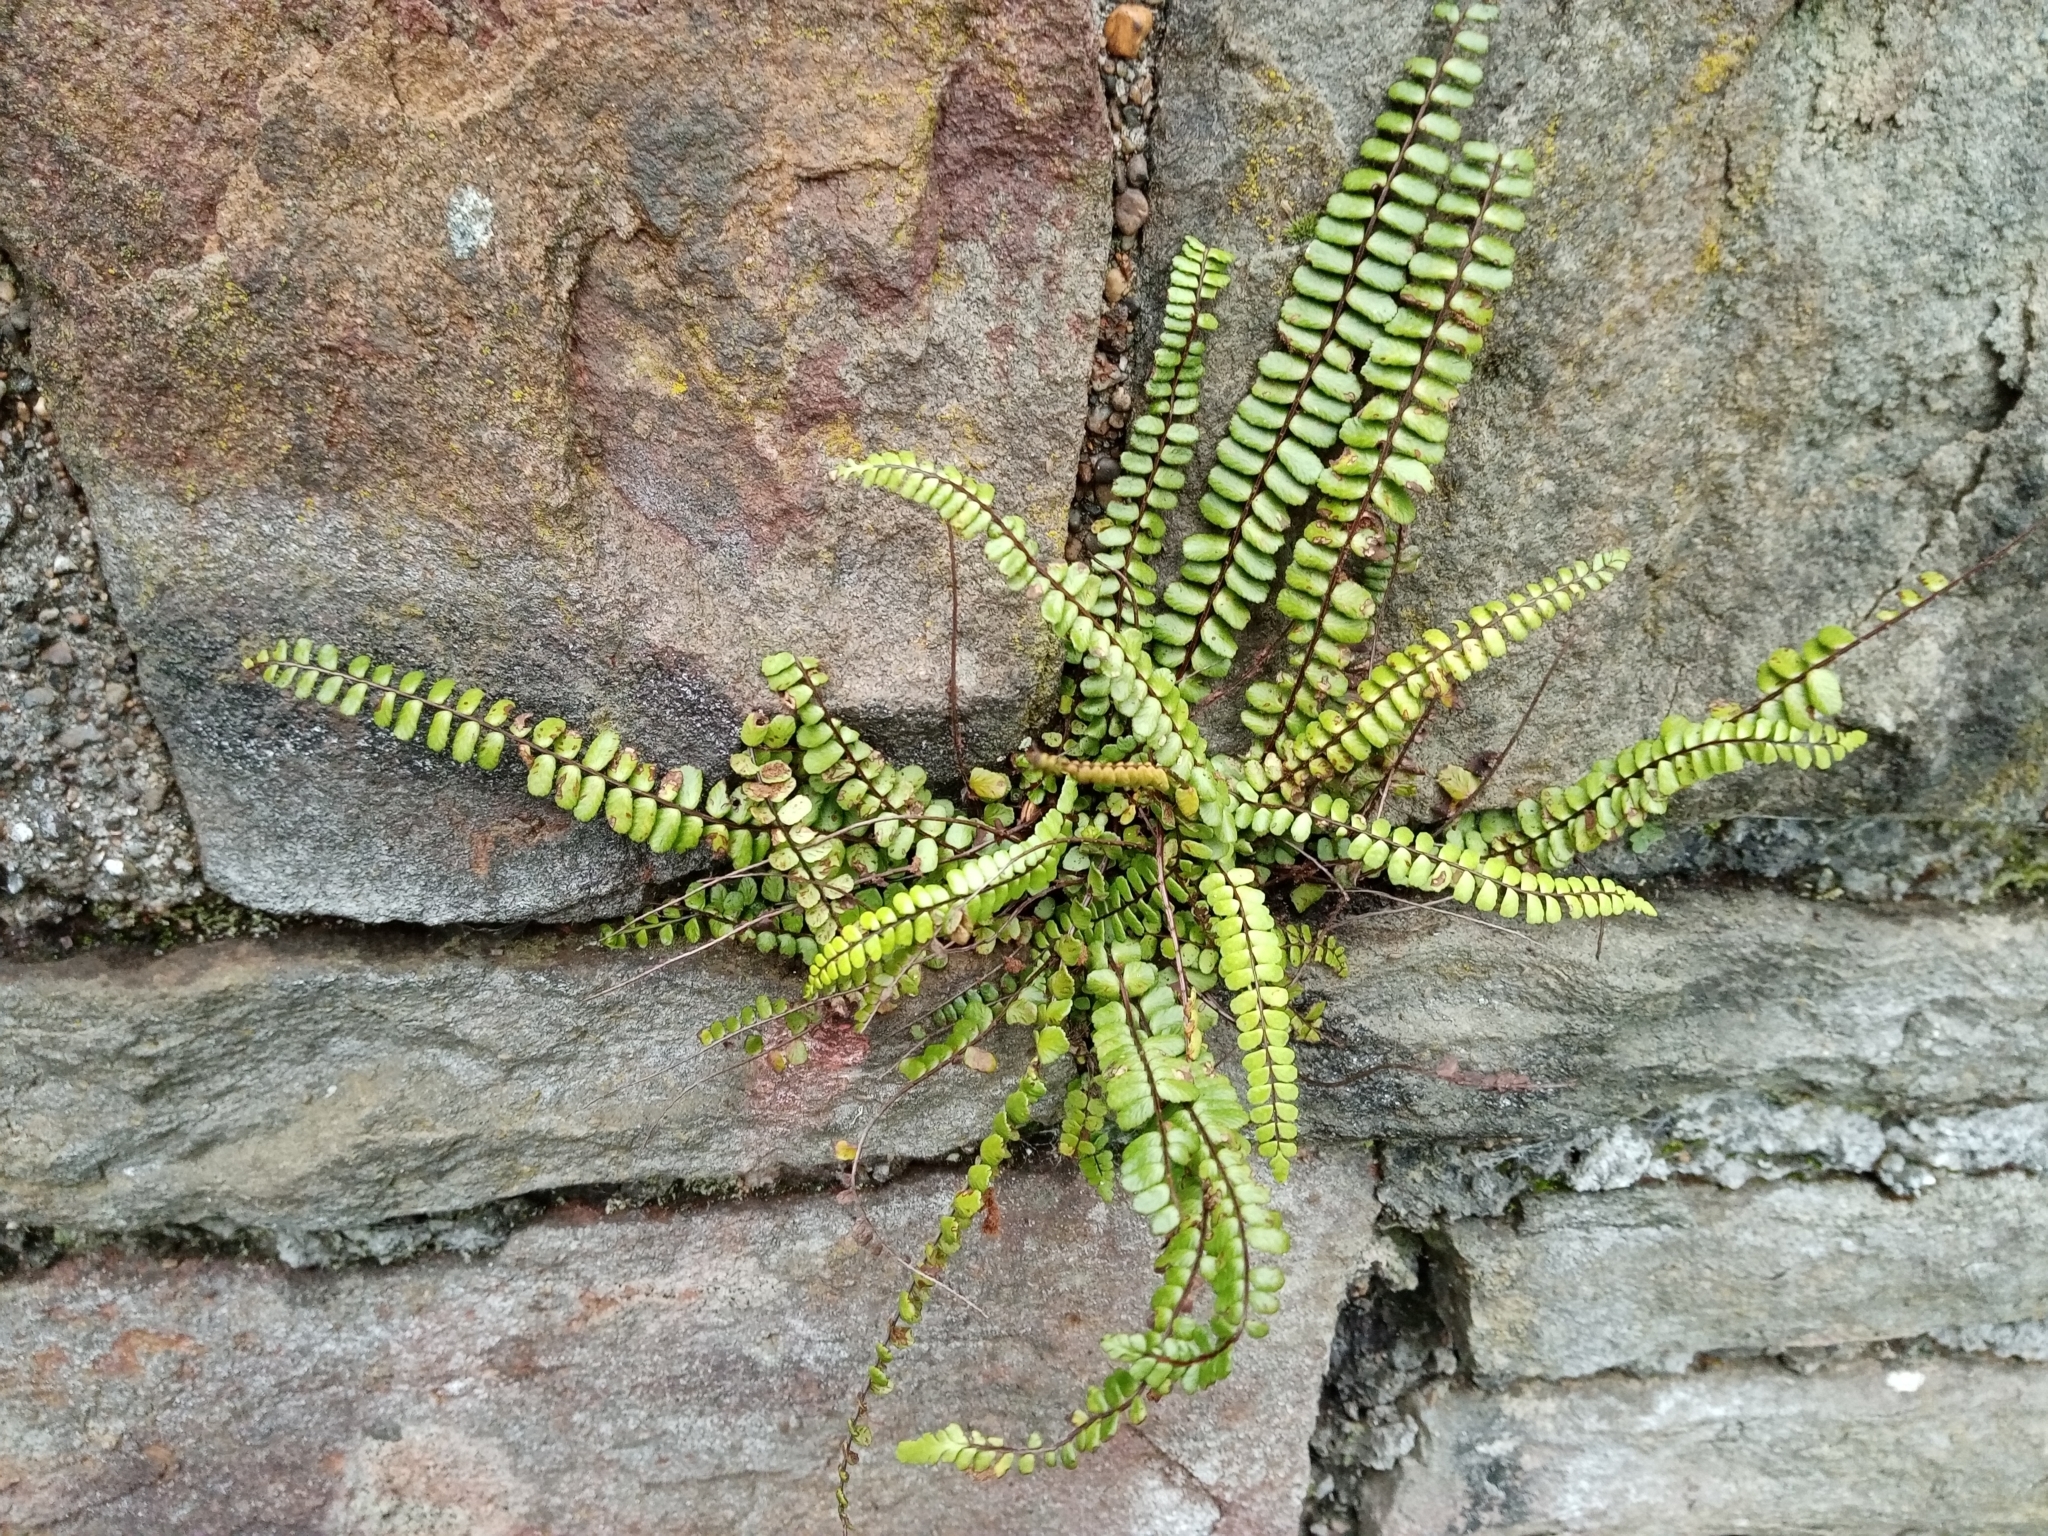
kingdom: Plantae
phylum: Tracheophyta
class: Polypodiopsida
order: Polypodiales
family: Aspleniaceae
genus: Asplenium
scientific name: Asplenium trichomanes
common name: Maidenhair spleenwort
